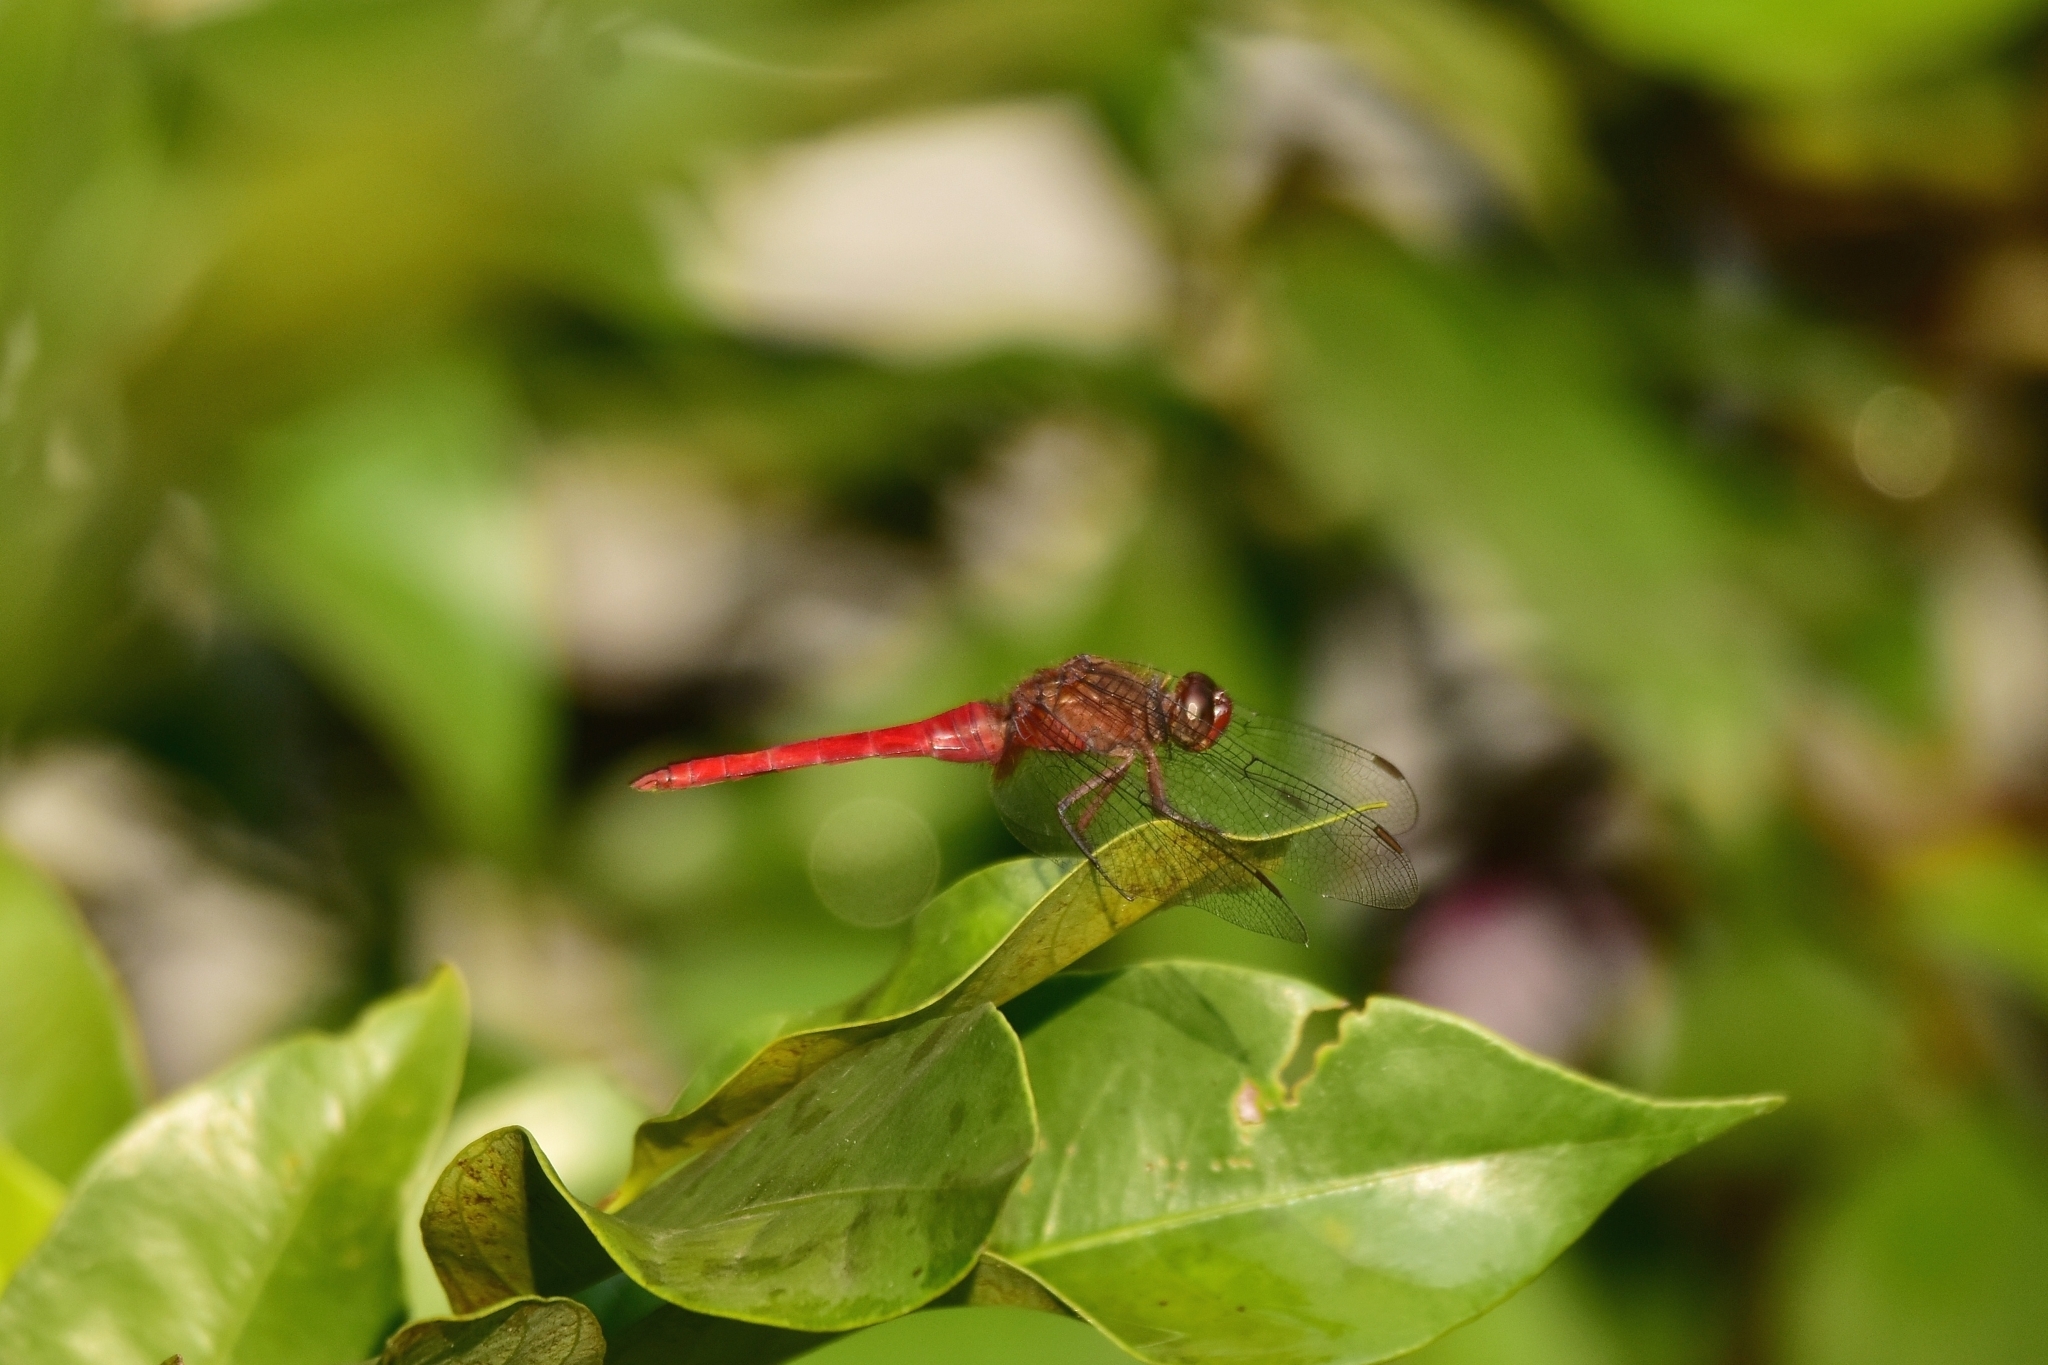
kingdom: Animalia
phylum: Arthropoda
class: Insecta
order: Odonata
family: Libellulidae
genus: Orthetrum
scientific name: Orthetrum chrysis
